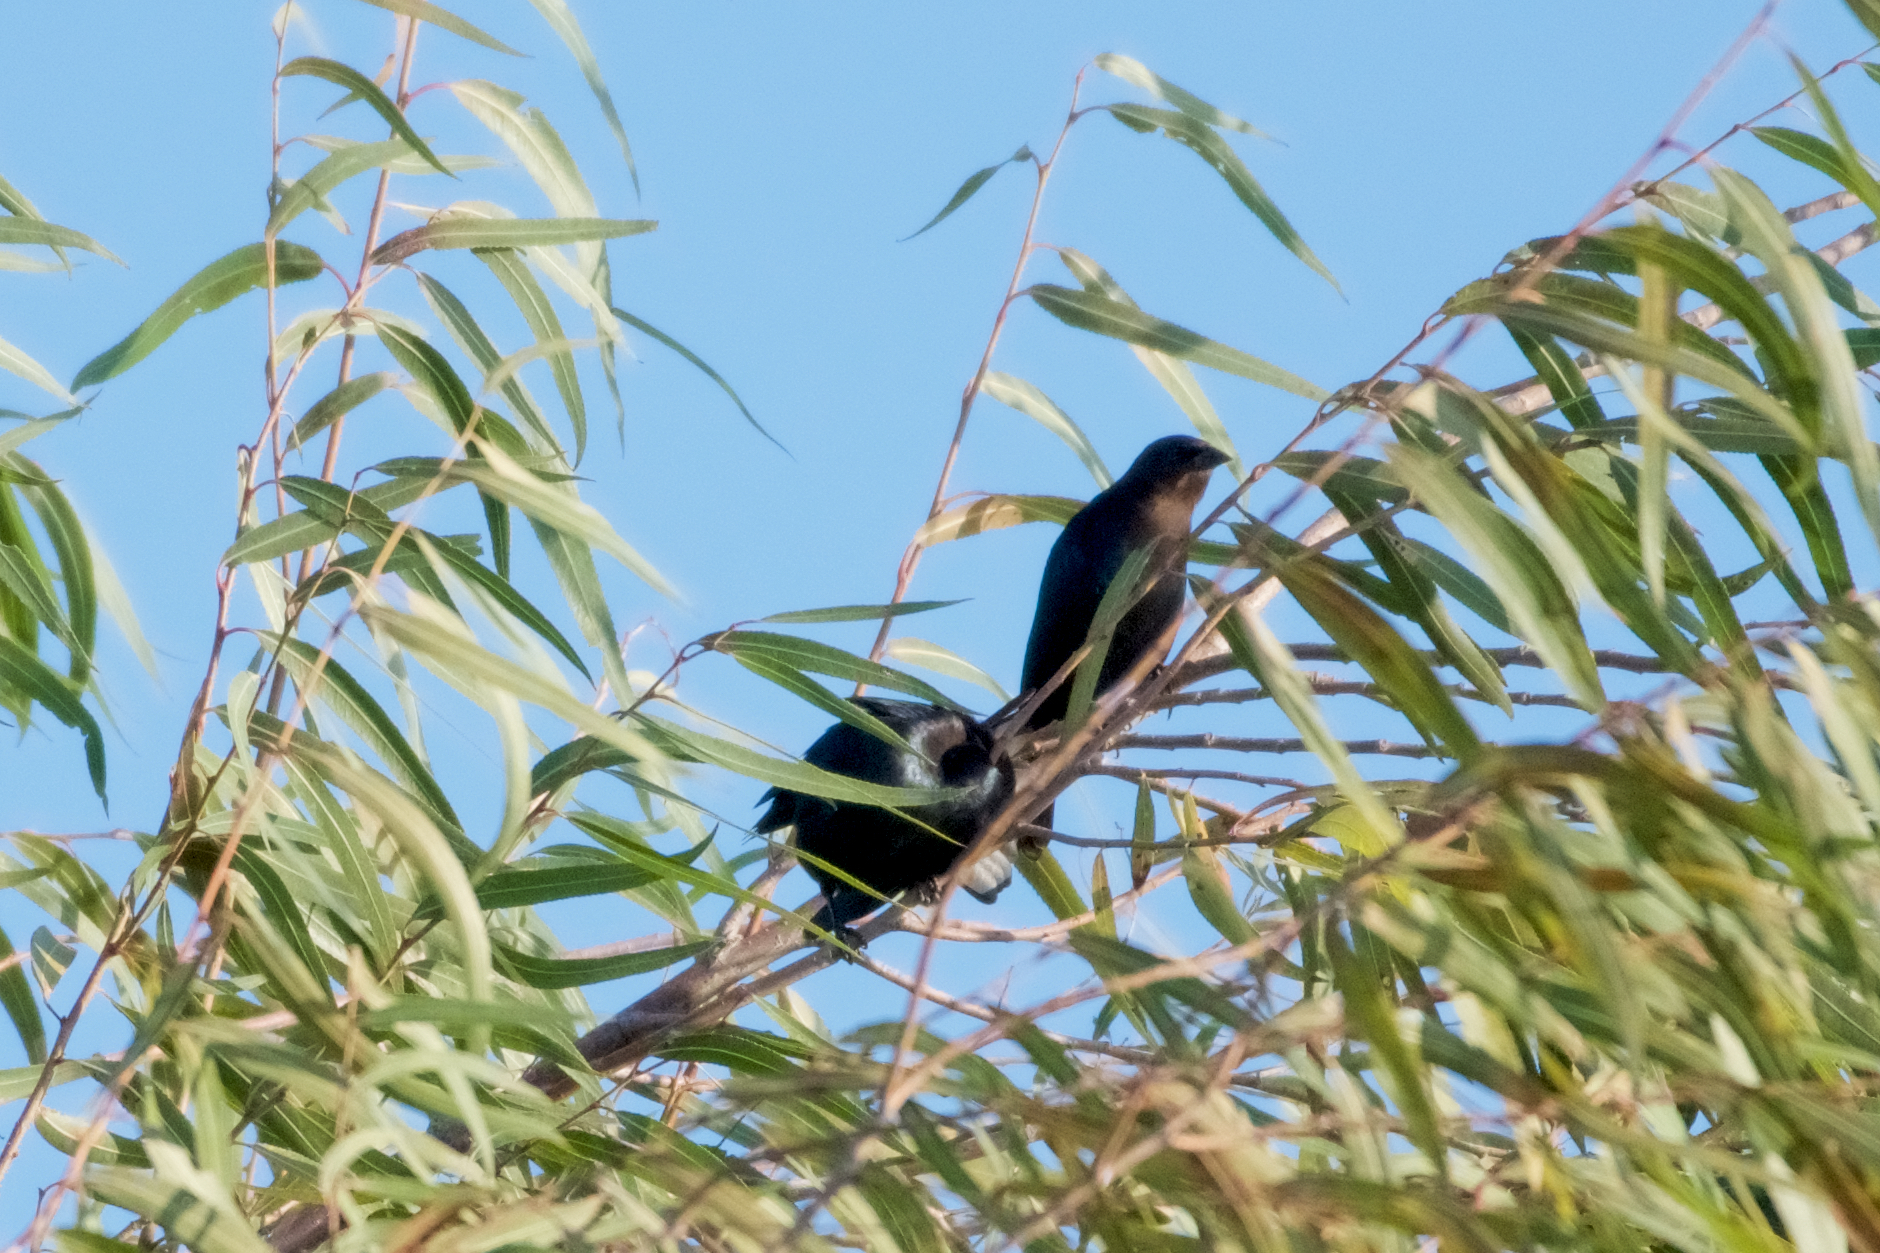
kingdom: Animalia
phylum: Chordata
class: Aves
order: Passeriformes
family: Icteridae
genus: Molothrus
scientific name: Molothrus ater
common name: Brown-headed cowbird
